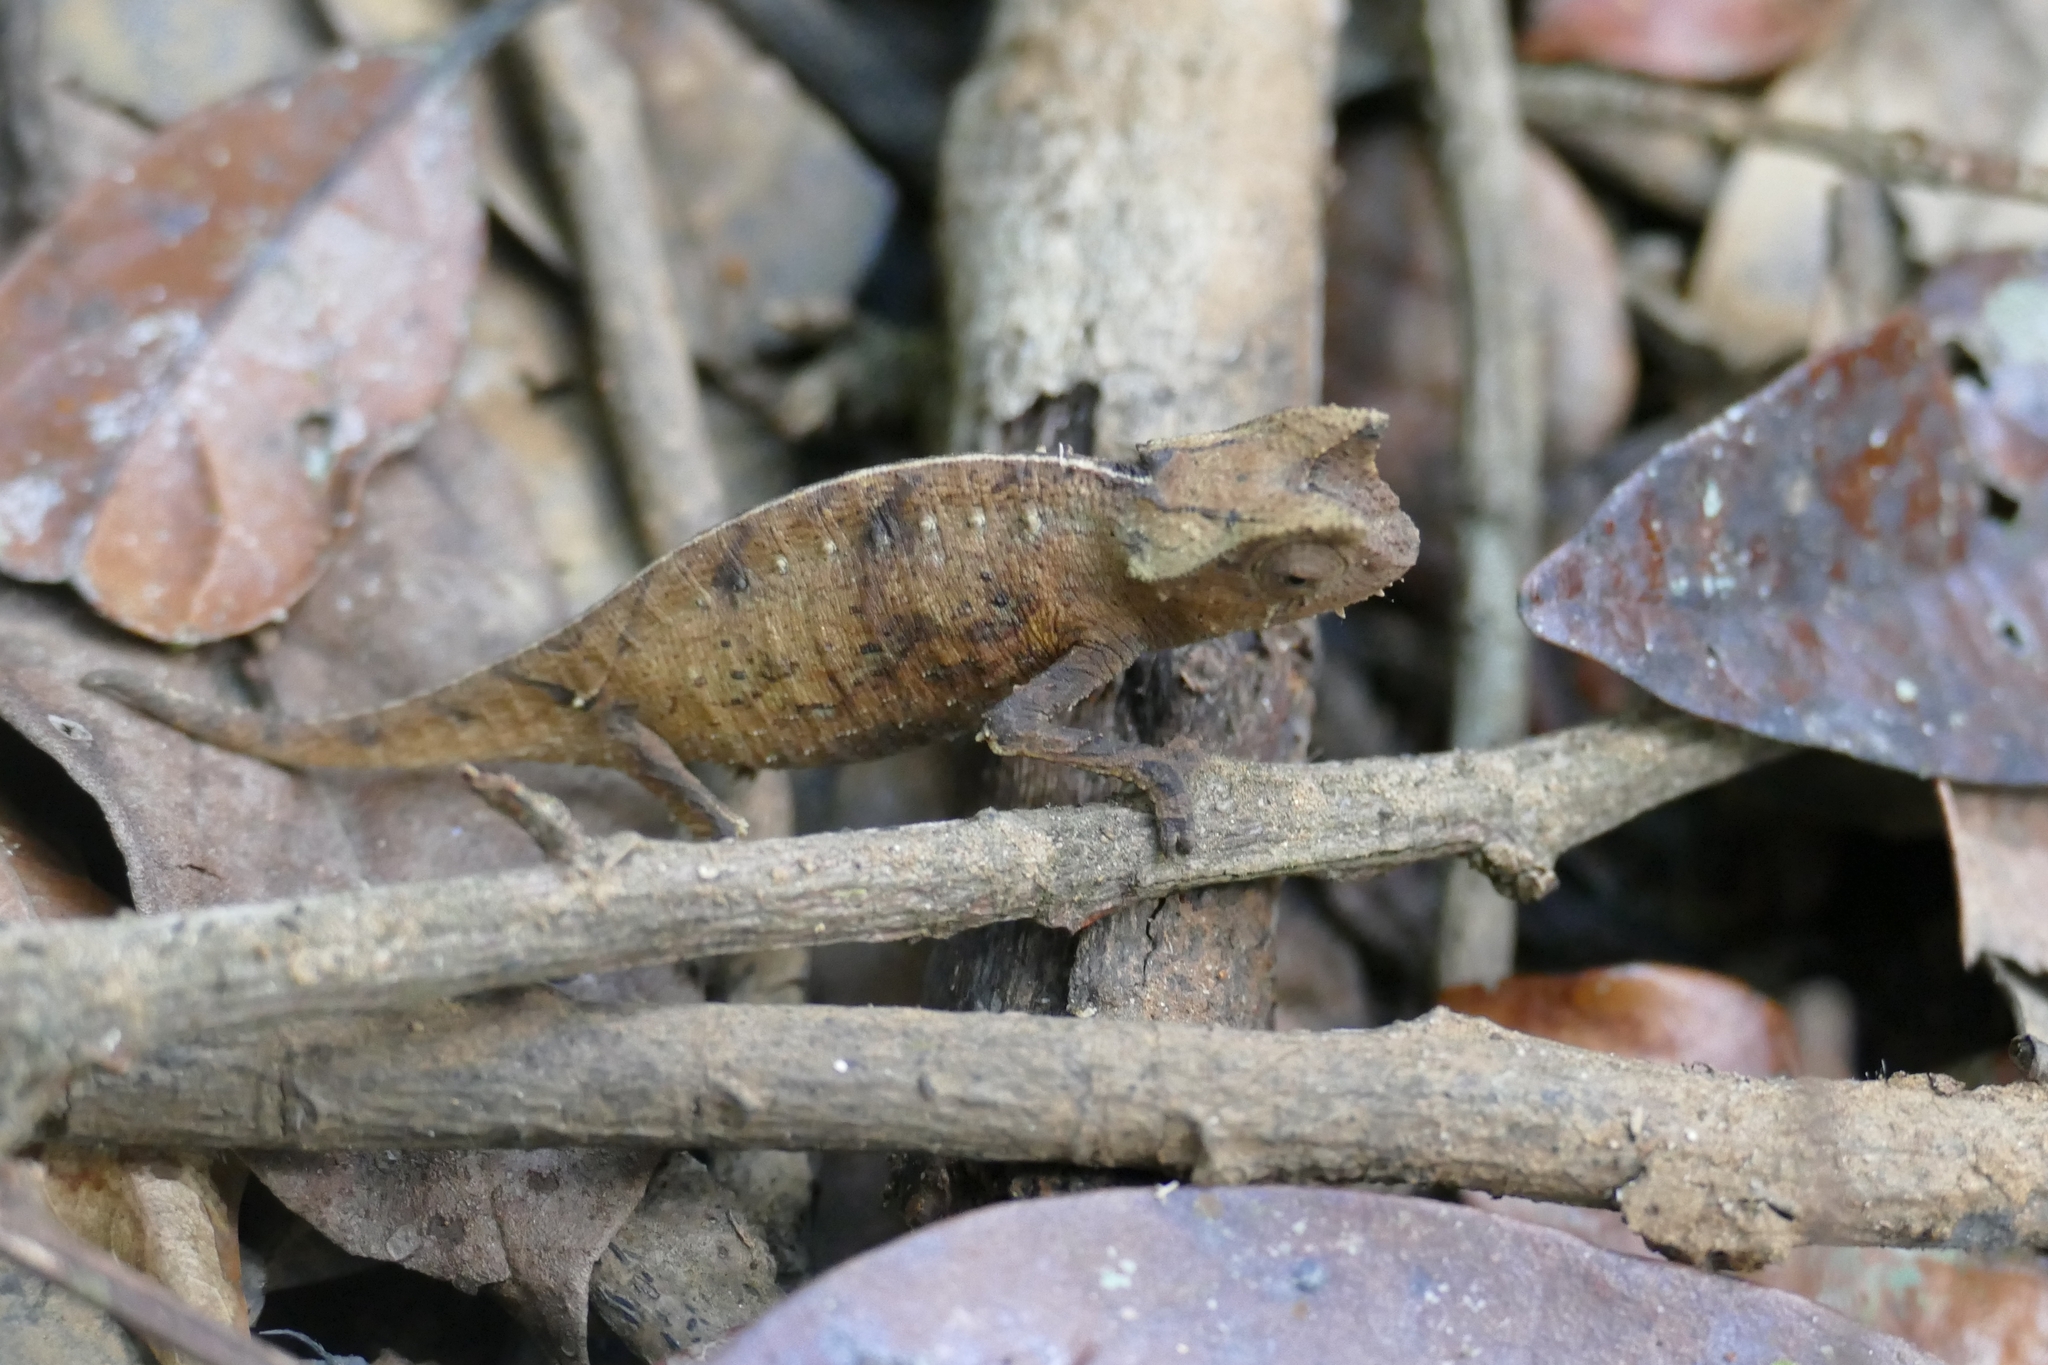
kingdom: Animalia
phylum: Chordata
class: Squamata
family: Chamaeleonidae
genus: Brookesia
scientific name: Brookesia superciliaris
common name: Brown leaf chameleon
